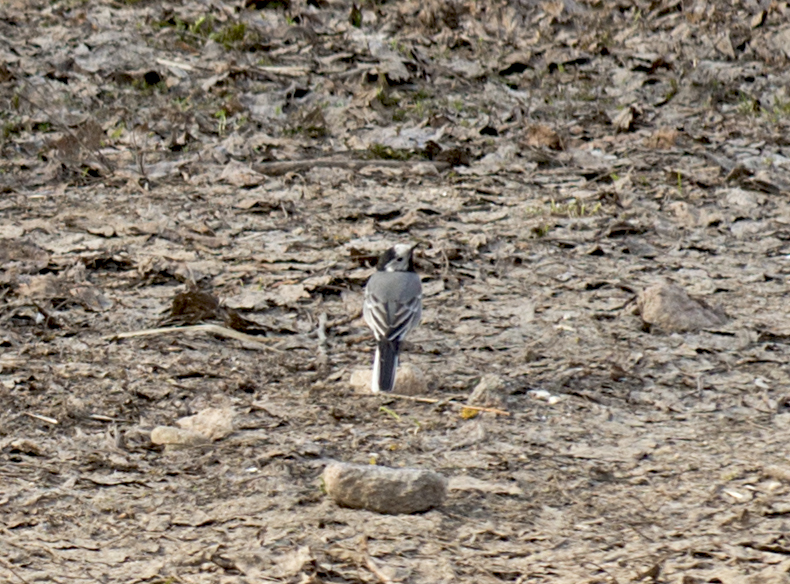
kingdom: Animalia
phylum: Chordata
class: Aves
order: Passeriformes
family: Motacillidae
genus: Motacilla
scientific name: Motacilla alba
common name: White wagtail
